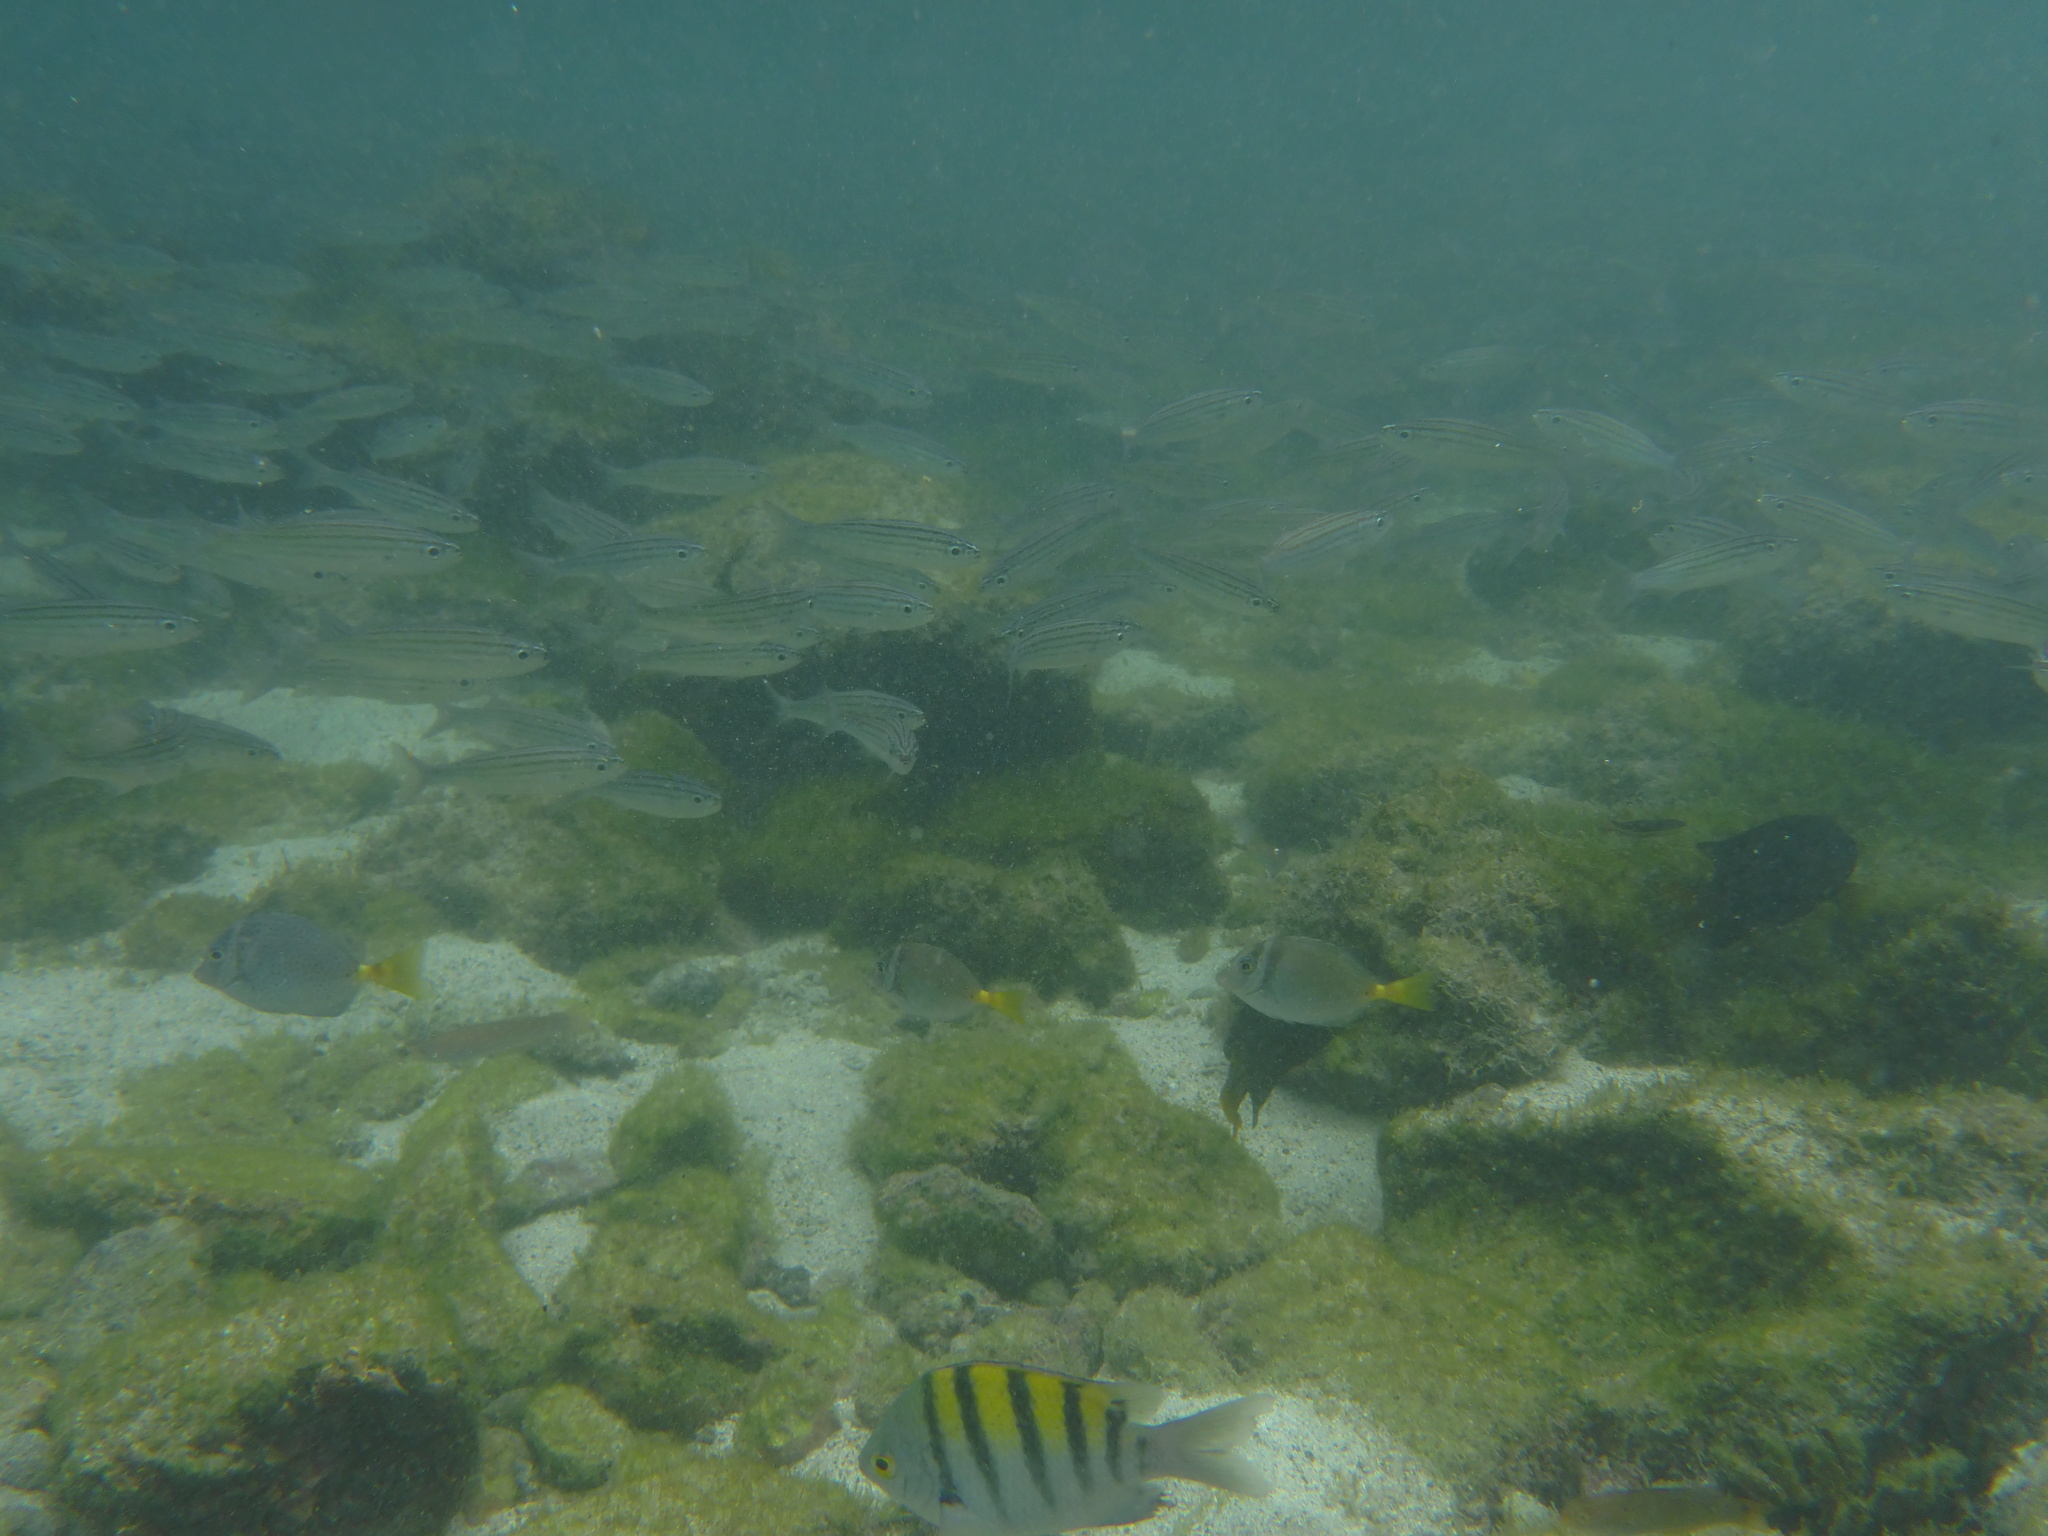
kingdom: Animalia
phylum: Chordata
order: Perciformes
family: Acanthuridae
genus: Prionurus
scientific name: Prionurus laticlavius
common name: Razor surgeonfish
